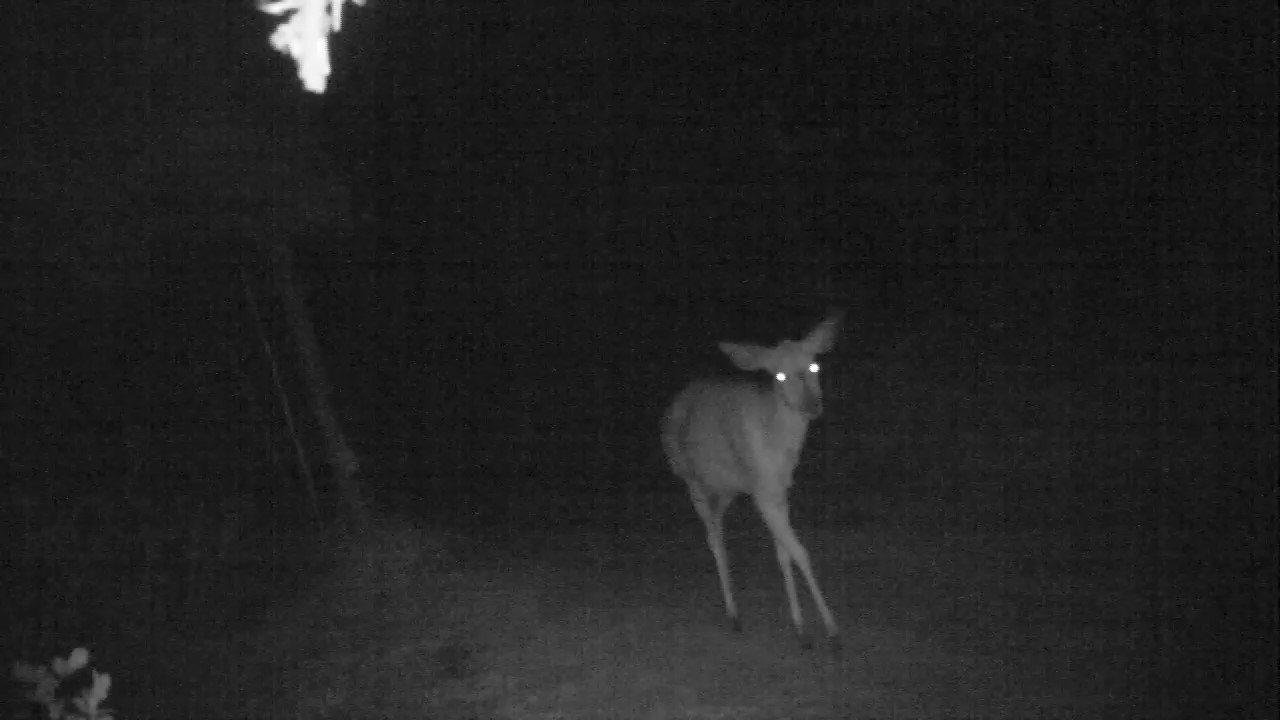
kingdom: Animalia
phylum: Chordata
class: Mammalia
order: Artiodactyla
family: Bovidae
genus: Tragelaphus
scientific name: Tragelaphus angasii
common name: Nyala
